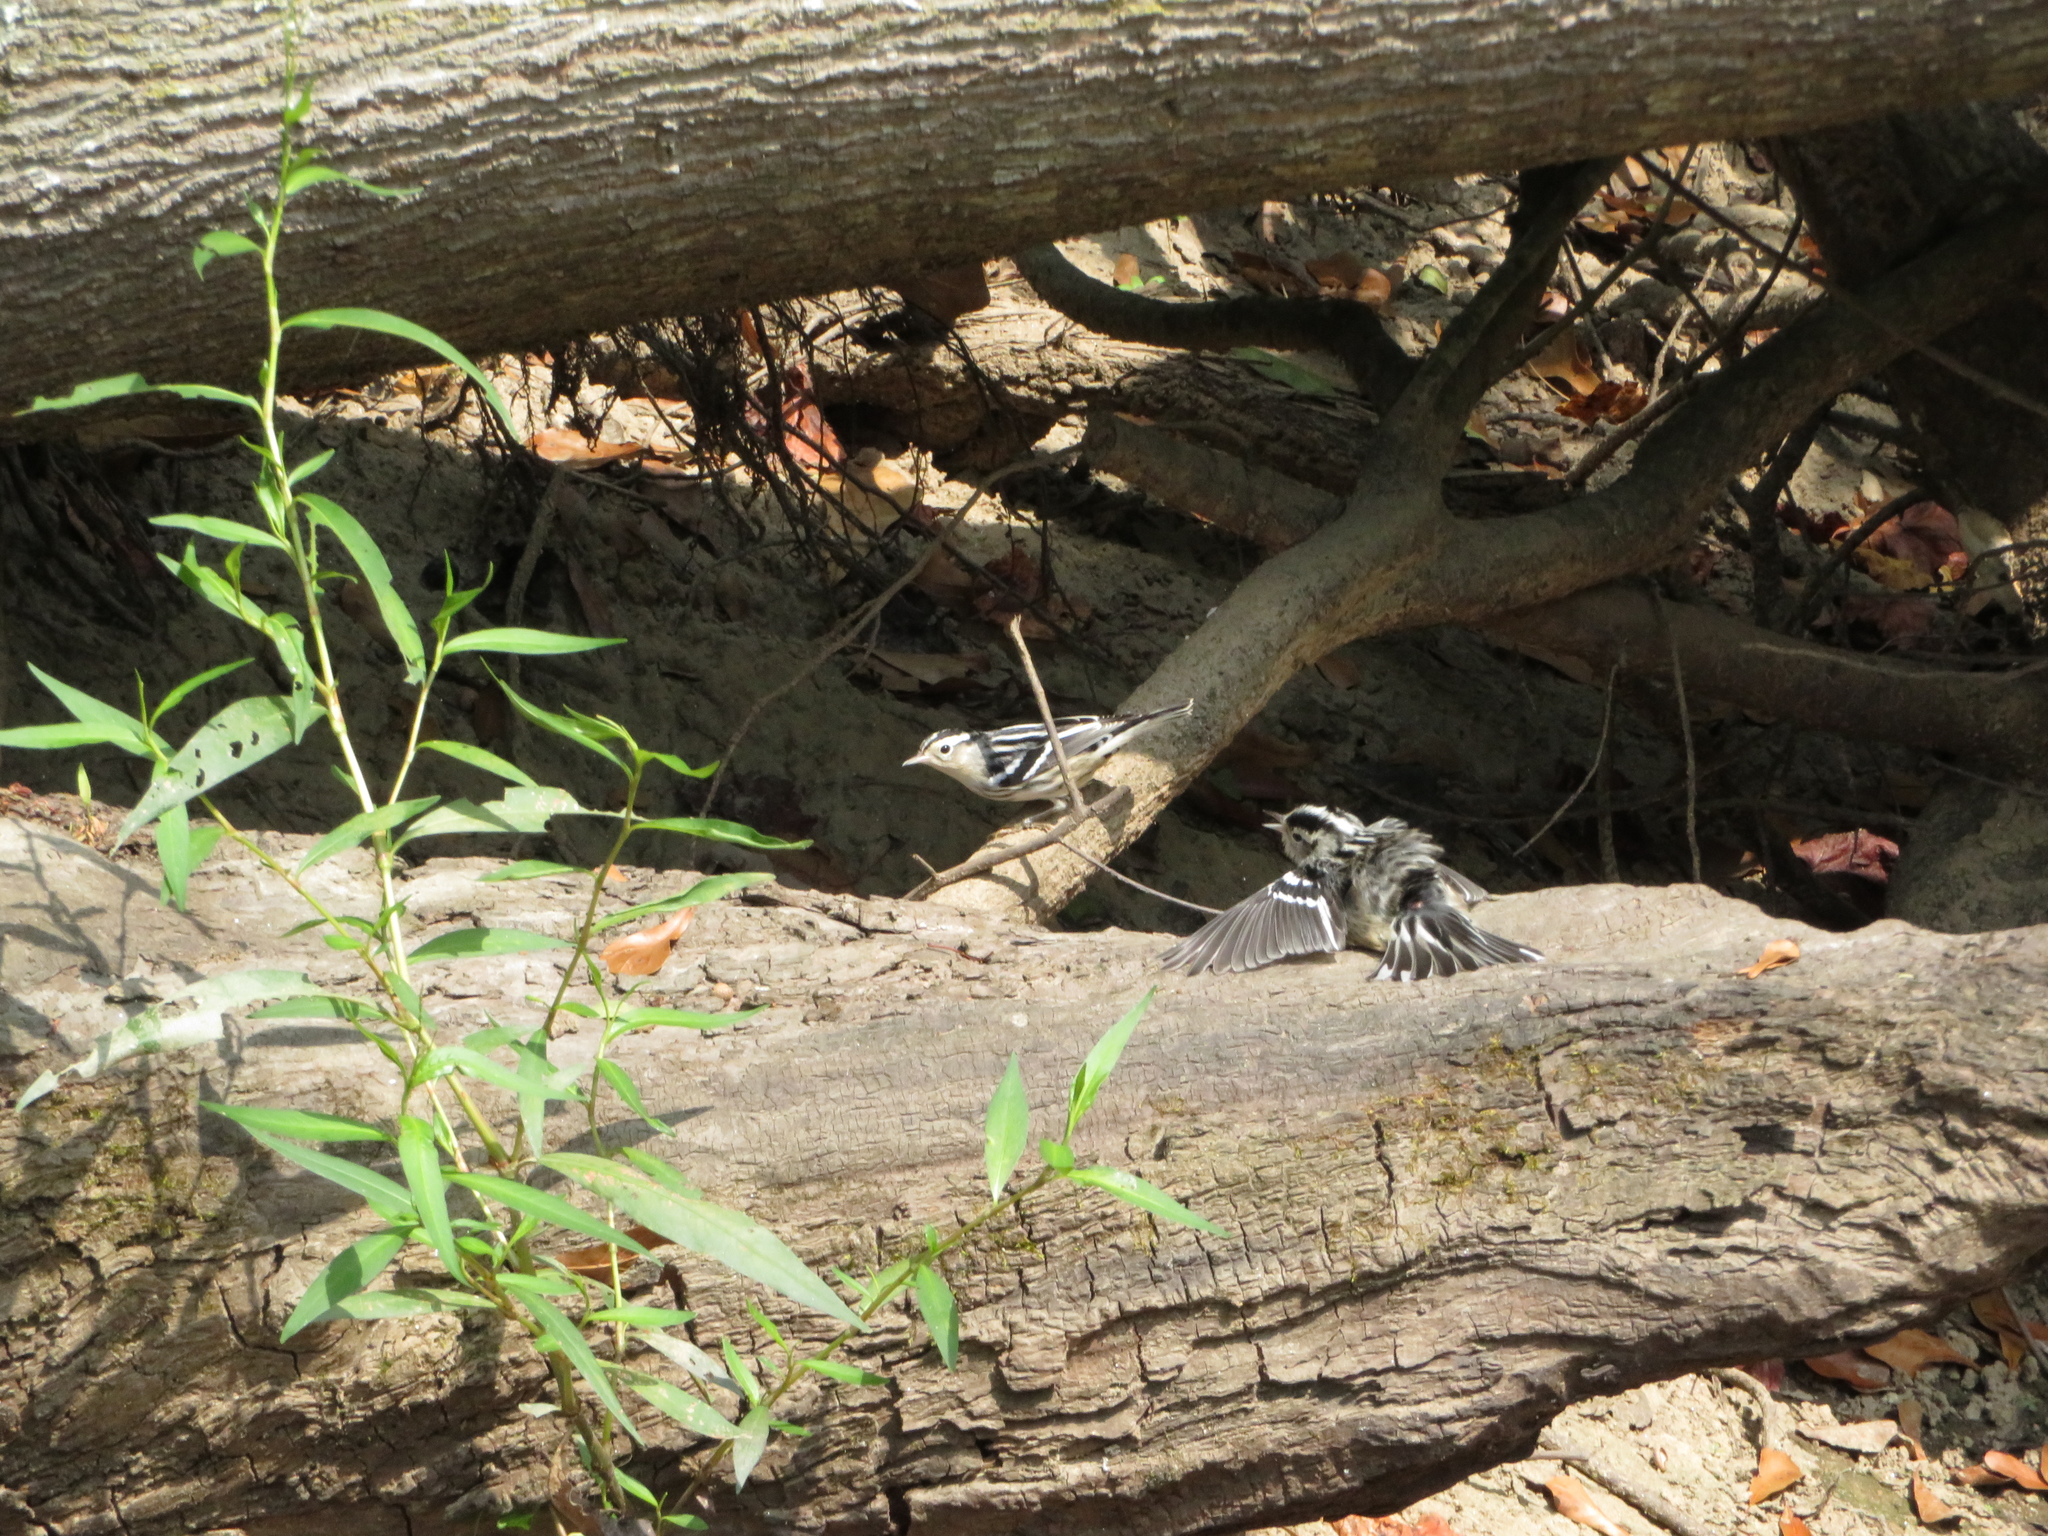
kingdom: Animalia
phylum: Chordata
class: Aves
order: Passeriformes
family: Parulidae
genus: Mniotilta
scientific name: Mniotilta varia
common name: Black-and-white warbler
